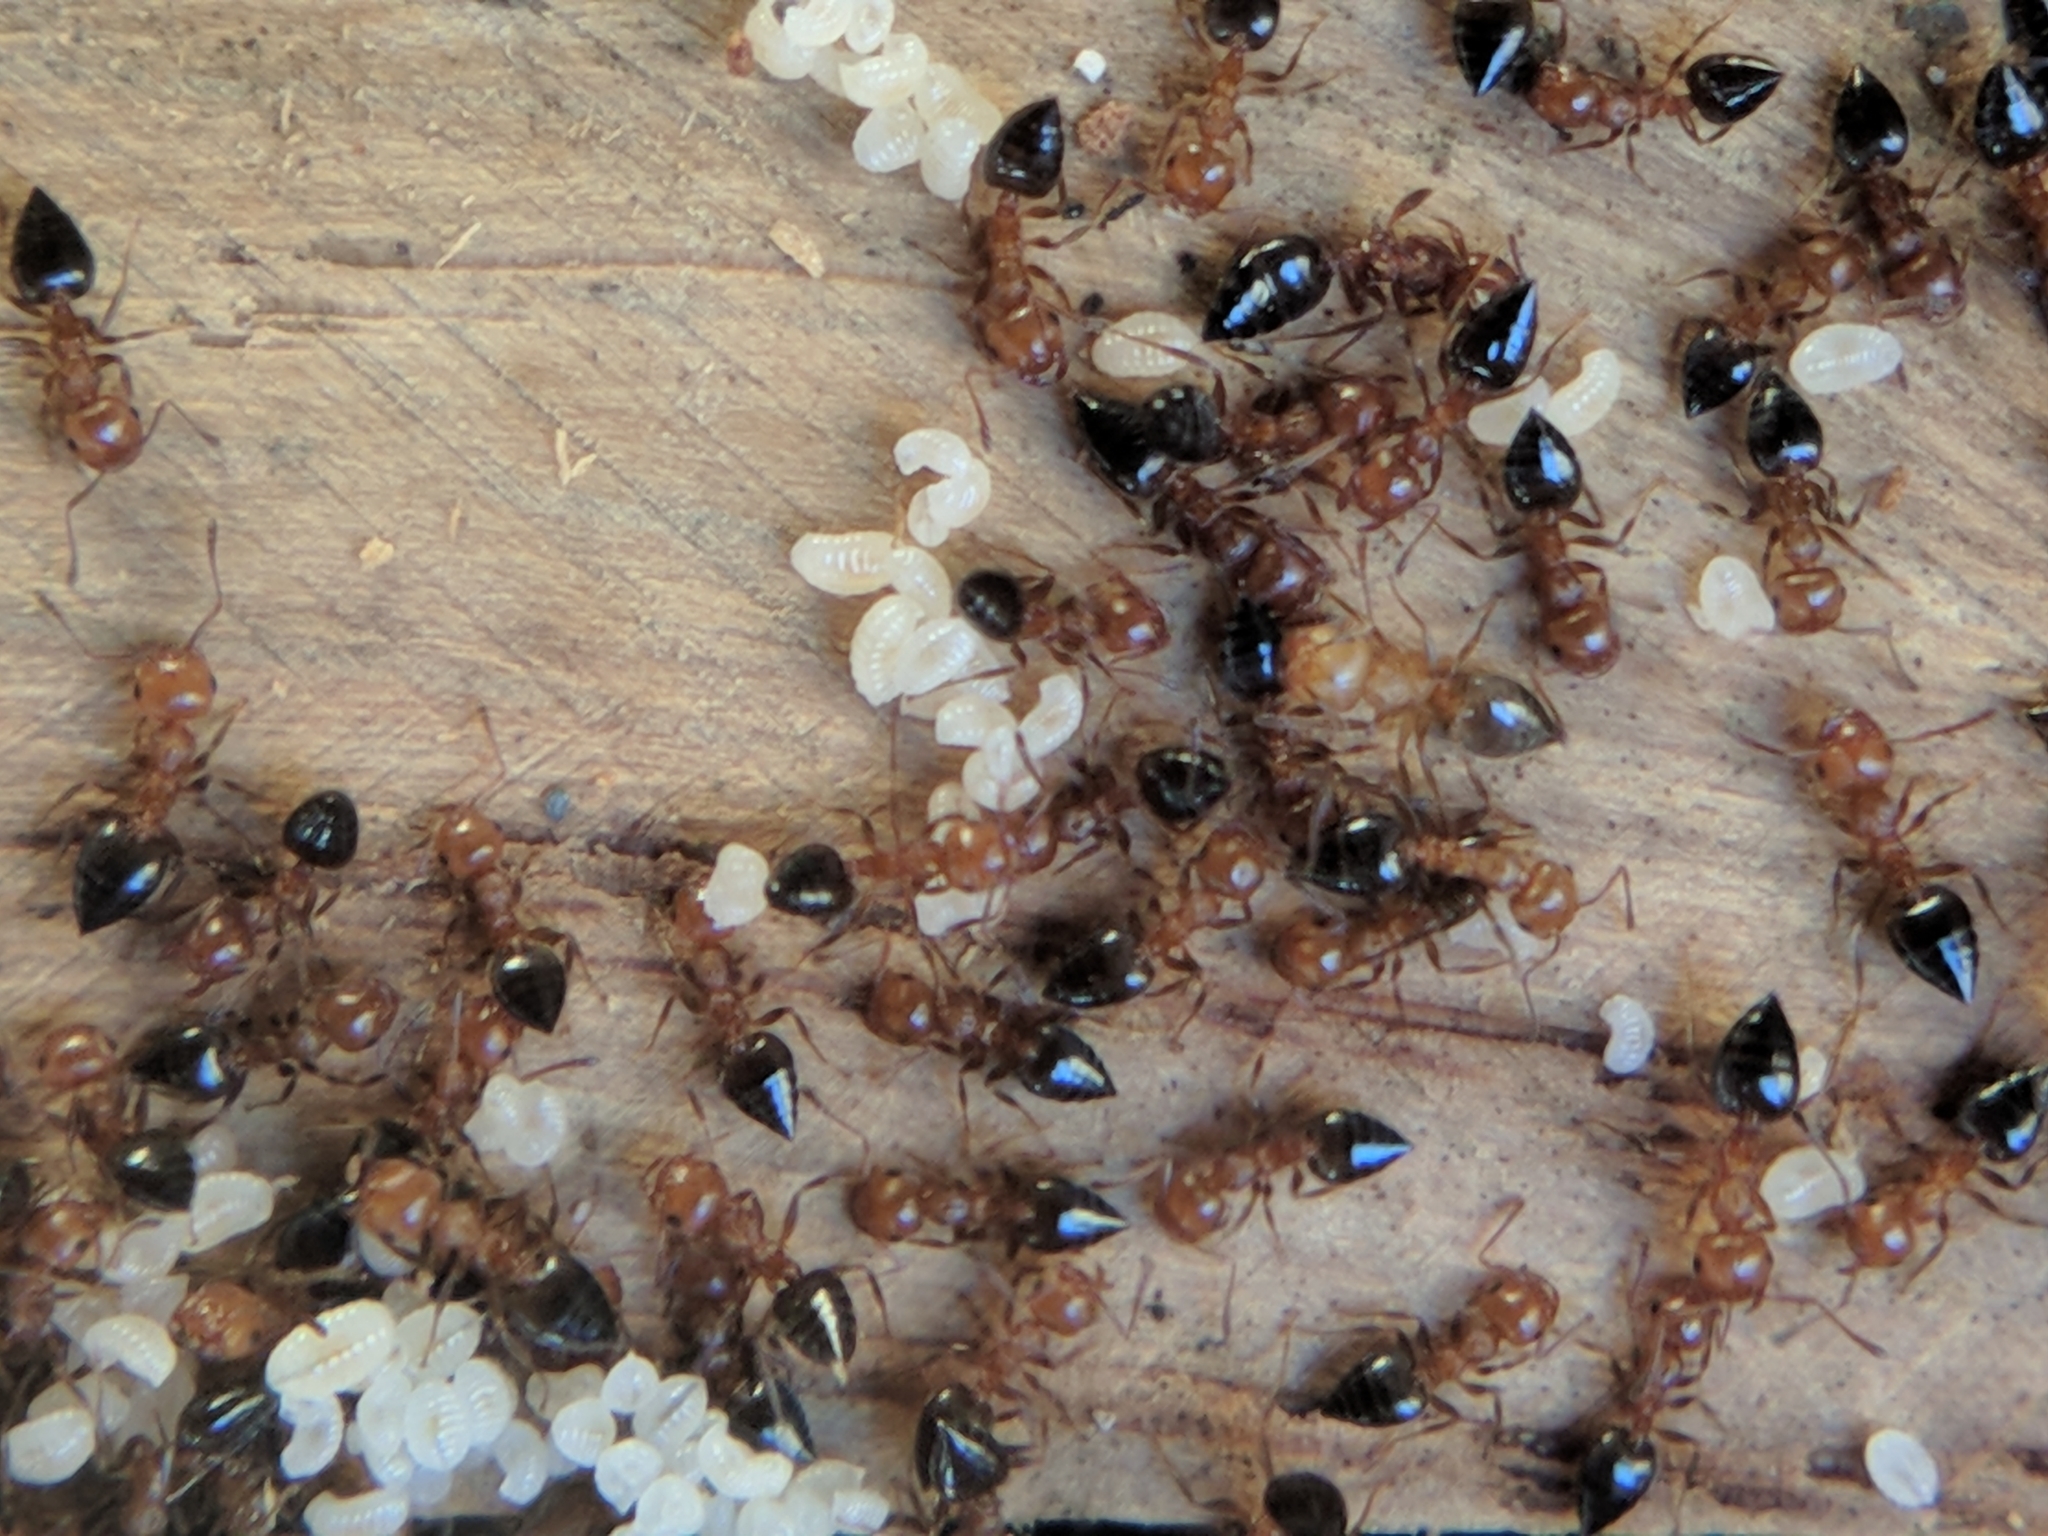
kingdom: Animalia
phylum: Arthropoda
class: Insecta
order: Hymenoptera
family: Formicidae
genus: Crematogaster
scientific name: Crematogaster schmidti
